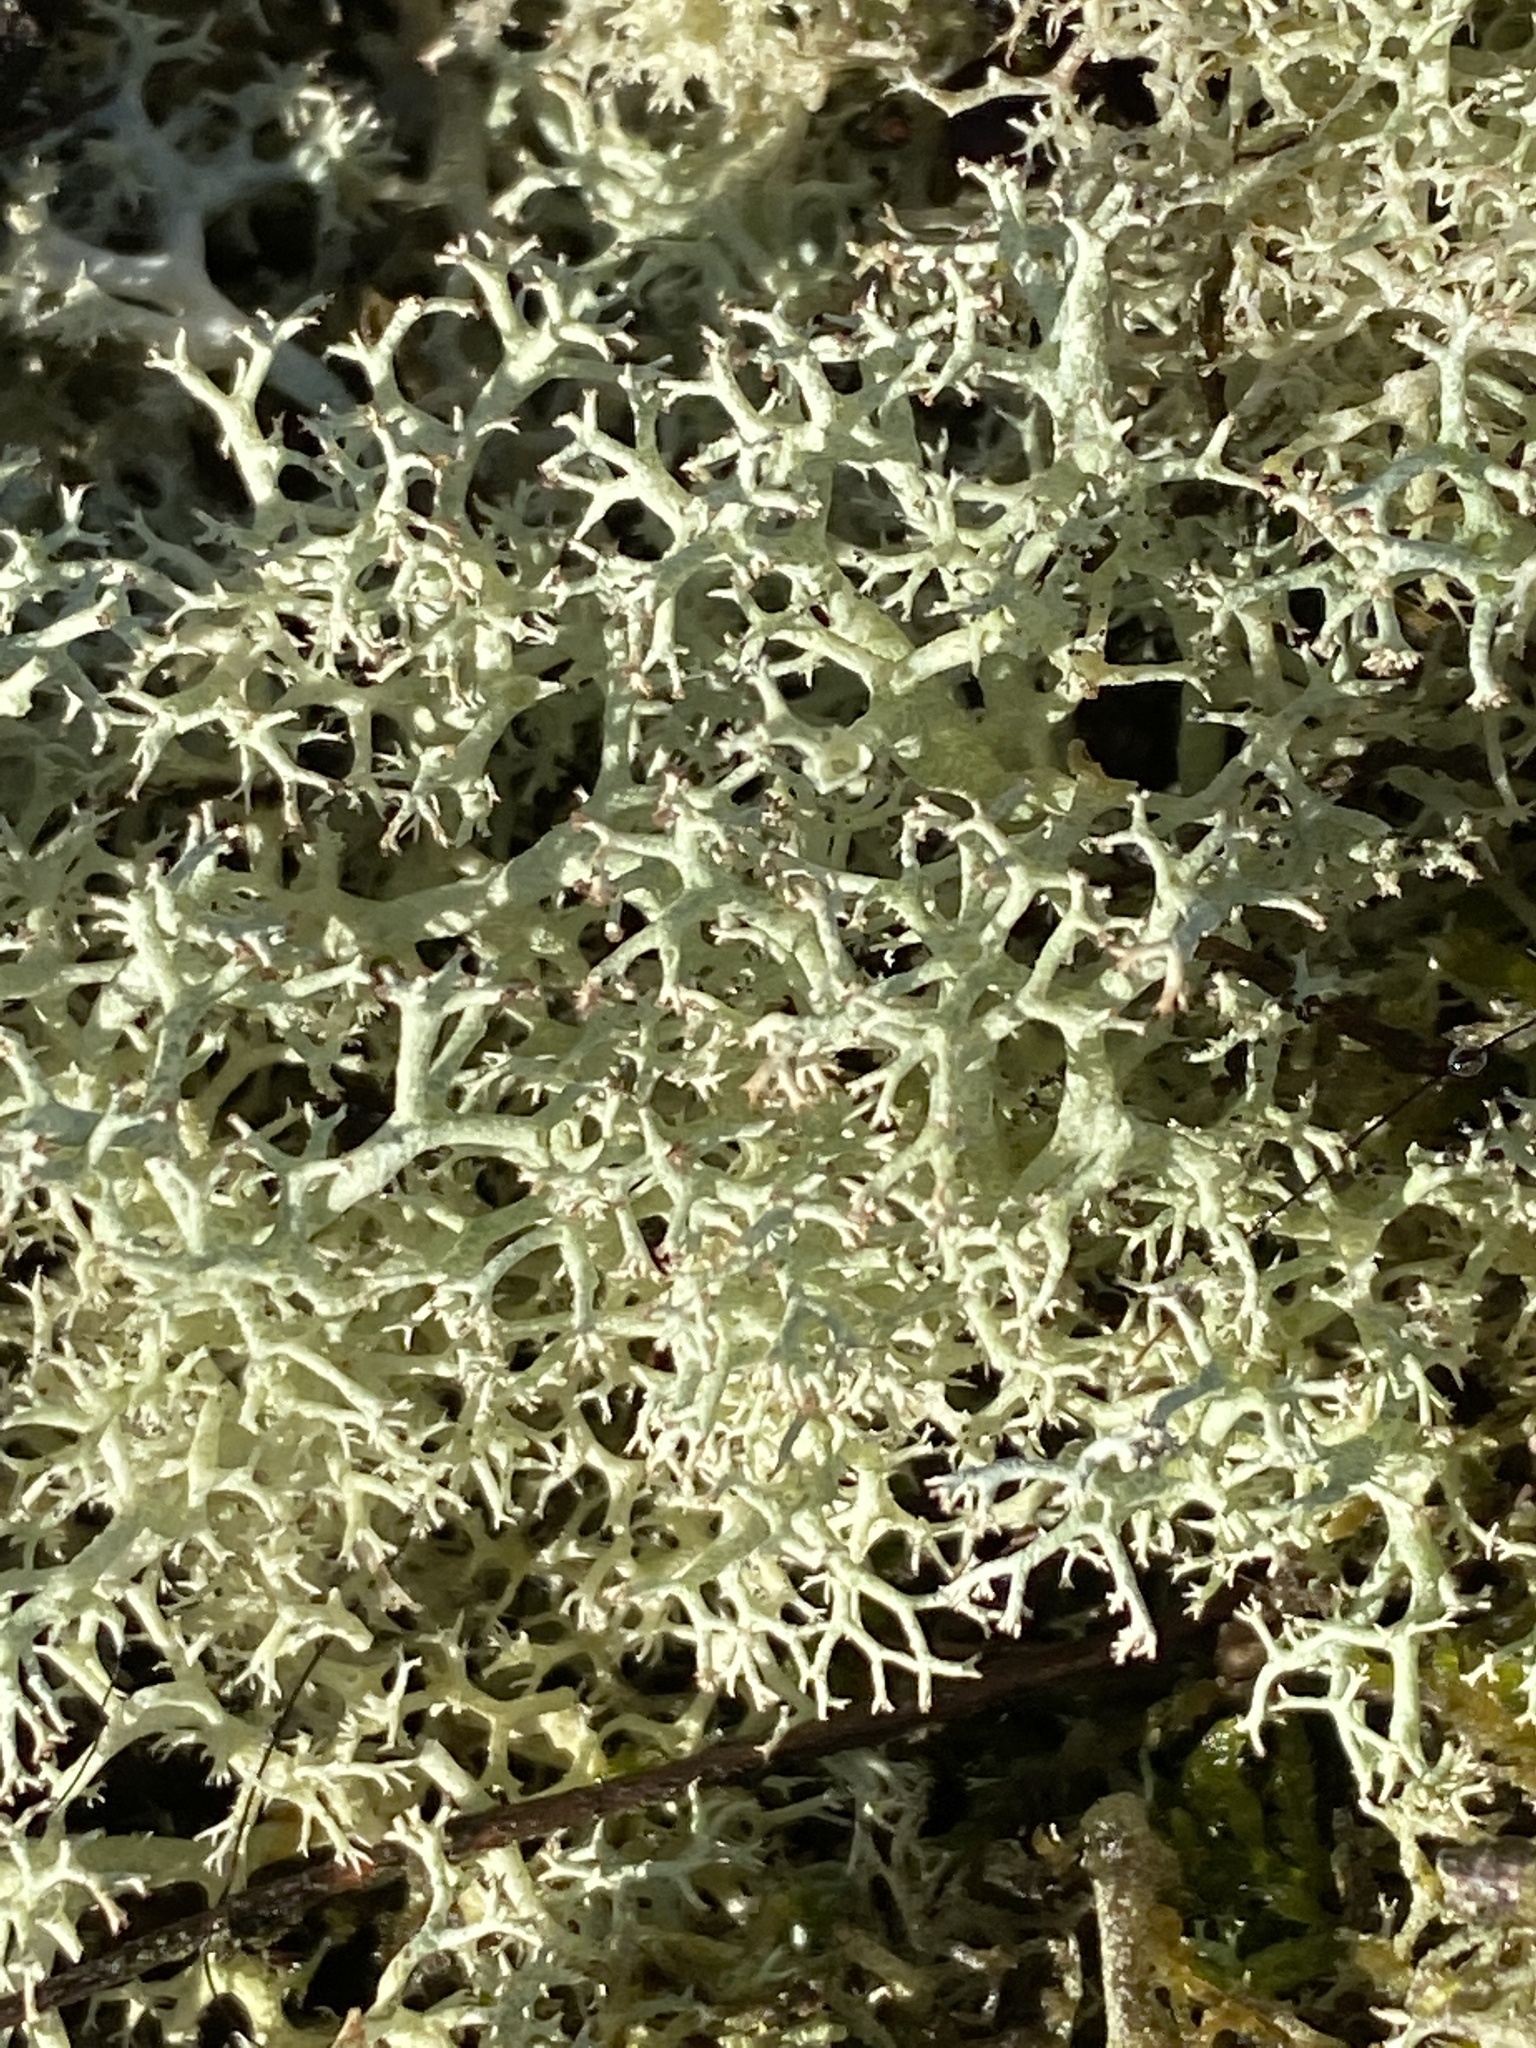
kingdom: Fungi
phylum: Ascomycota
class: Lecanoromycetes
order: Lecanorales
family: Cladoniaceae
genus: Cladonia
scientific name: Cladonia portentosa
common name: Reindeer lichen
